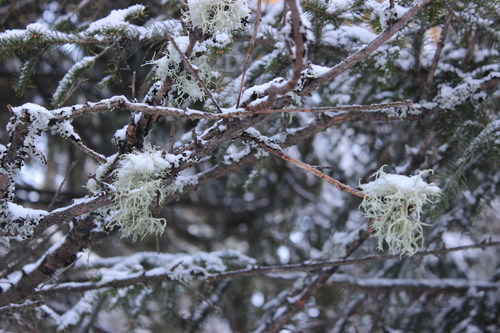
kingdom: Fungi
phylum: Ascomycota
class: Lecanoromycetes
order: Lecanorales
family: Parmeliaceae
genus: Evernia
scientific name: Evernia mesomorpha
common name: Boreal oak moss lichen
